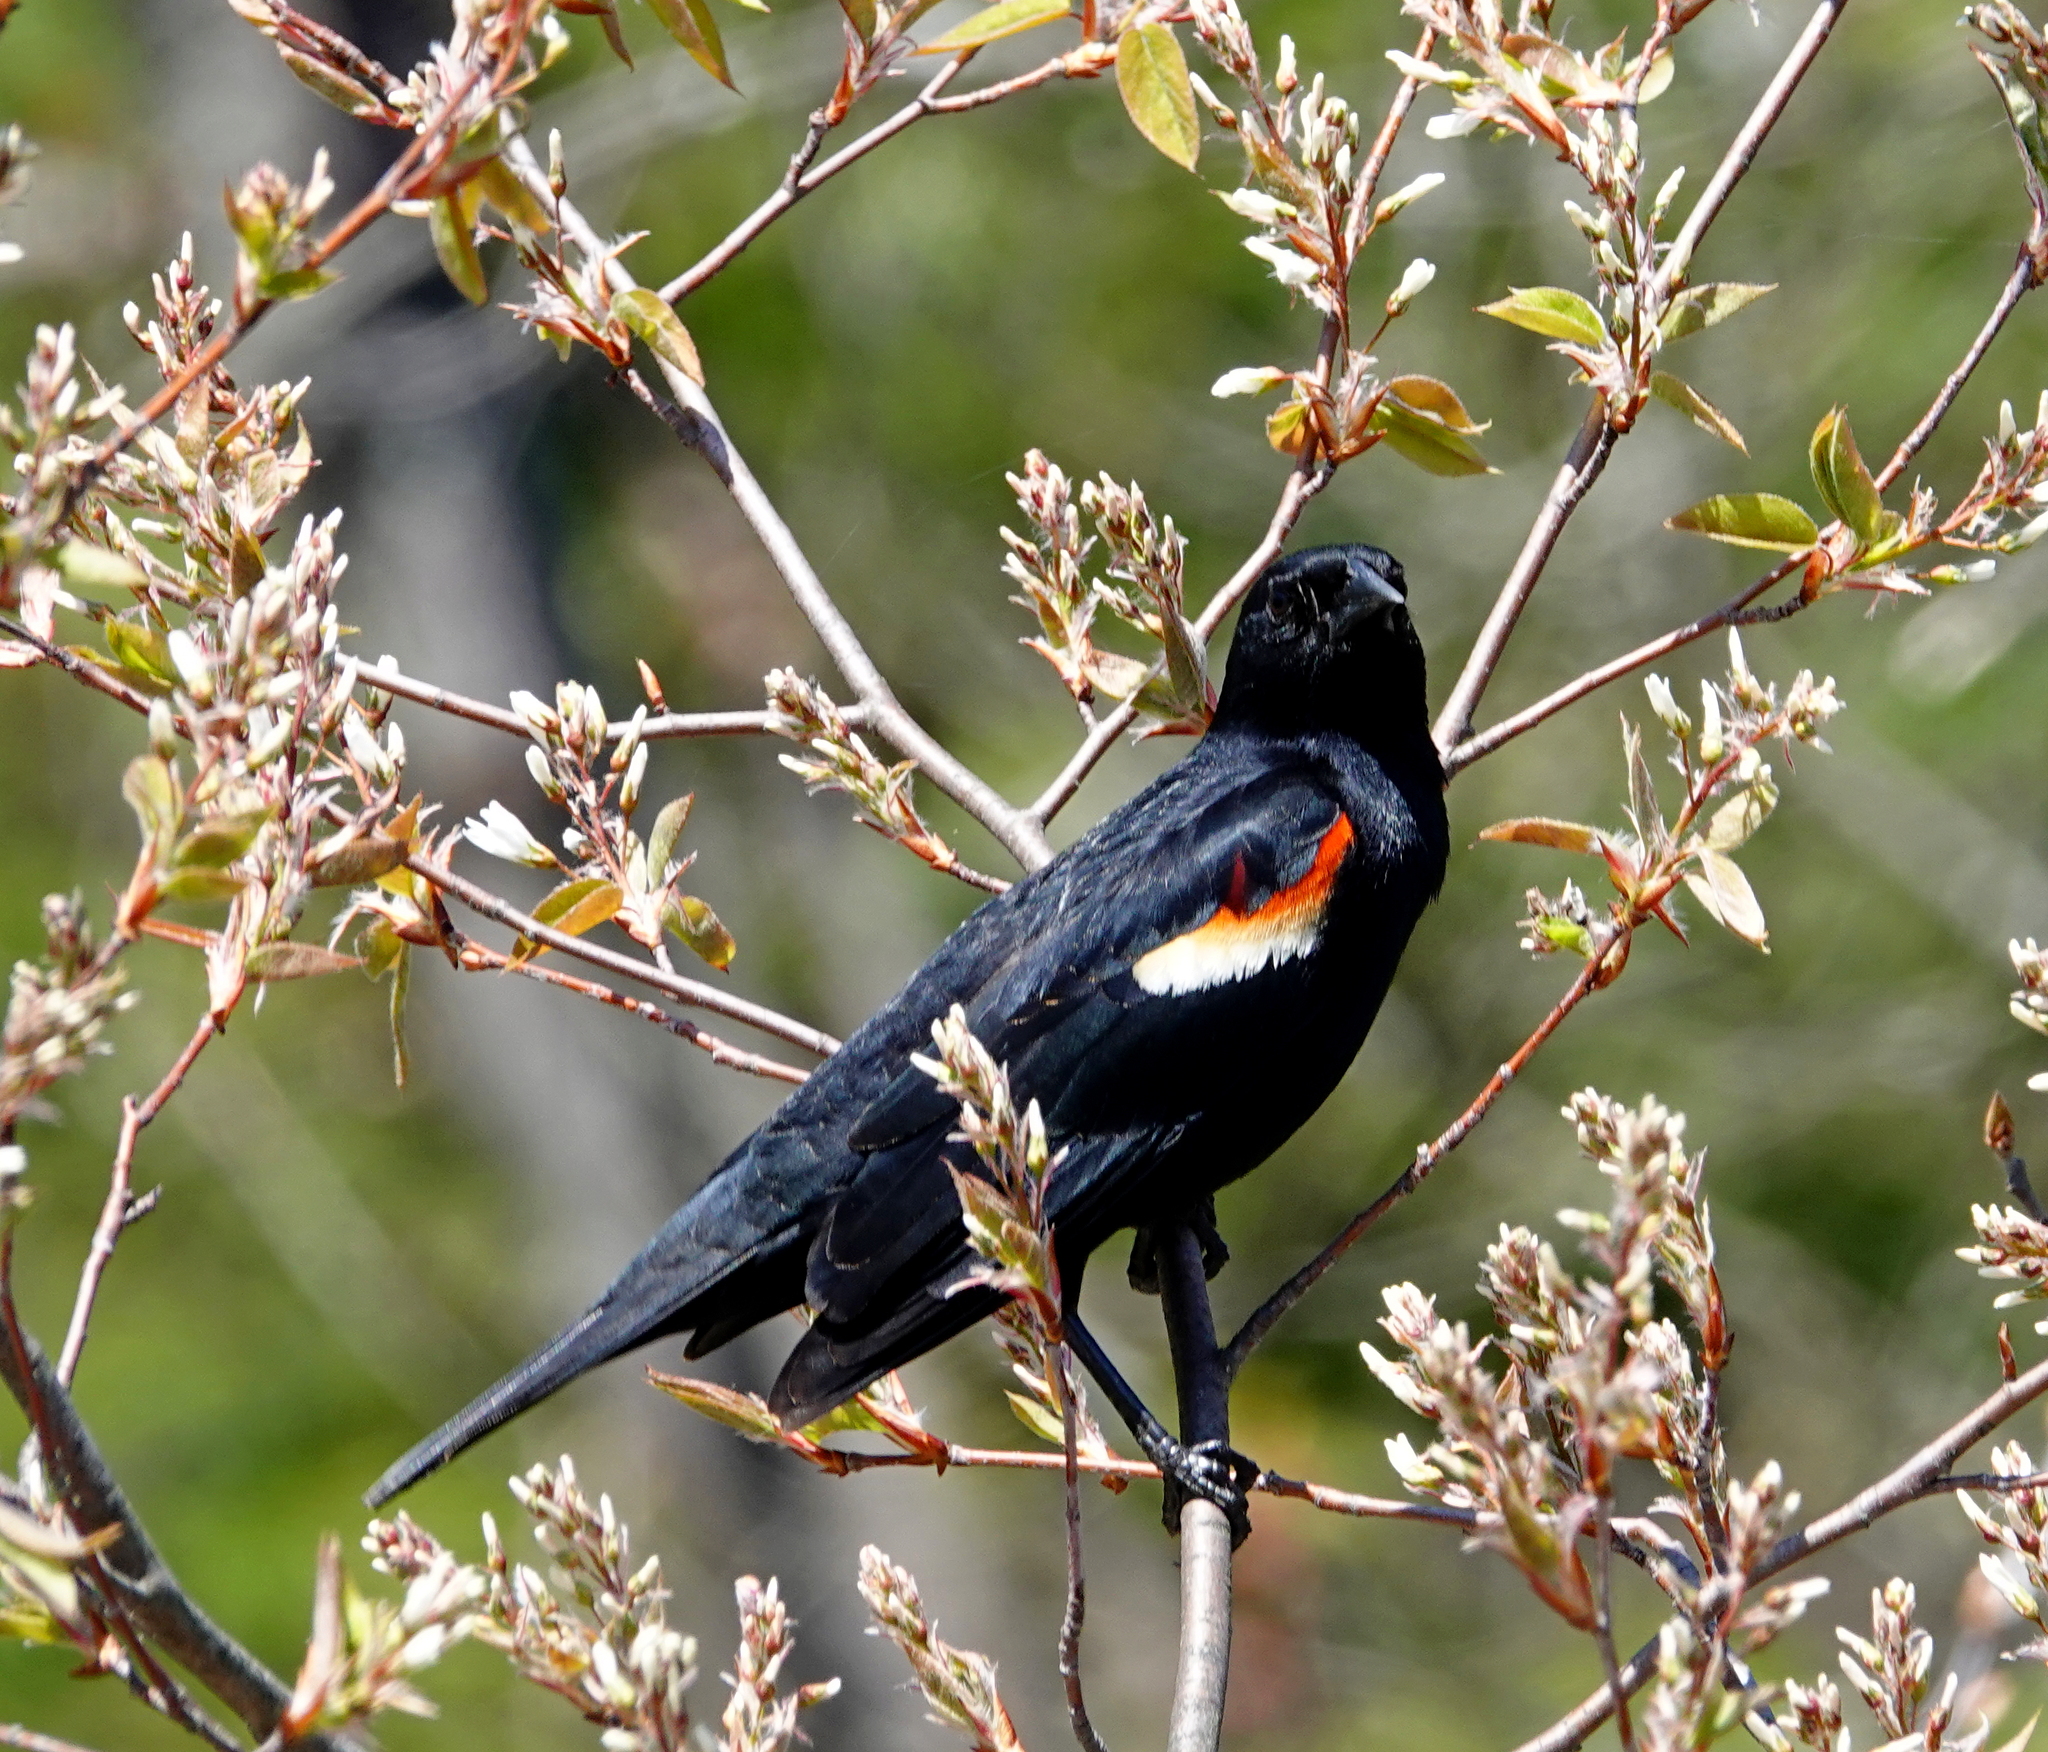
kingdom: Animalia
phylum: Chordata
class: Aves
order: Passeriformes
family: Icteridae
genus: Agelaius
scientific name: Agelaius phoeniceus
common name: Red-winged blackbird
